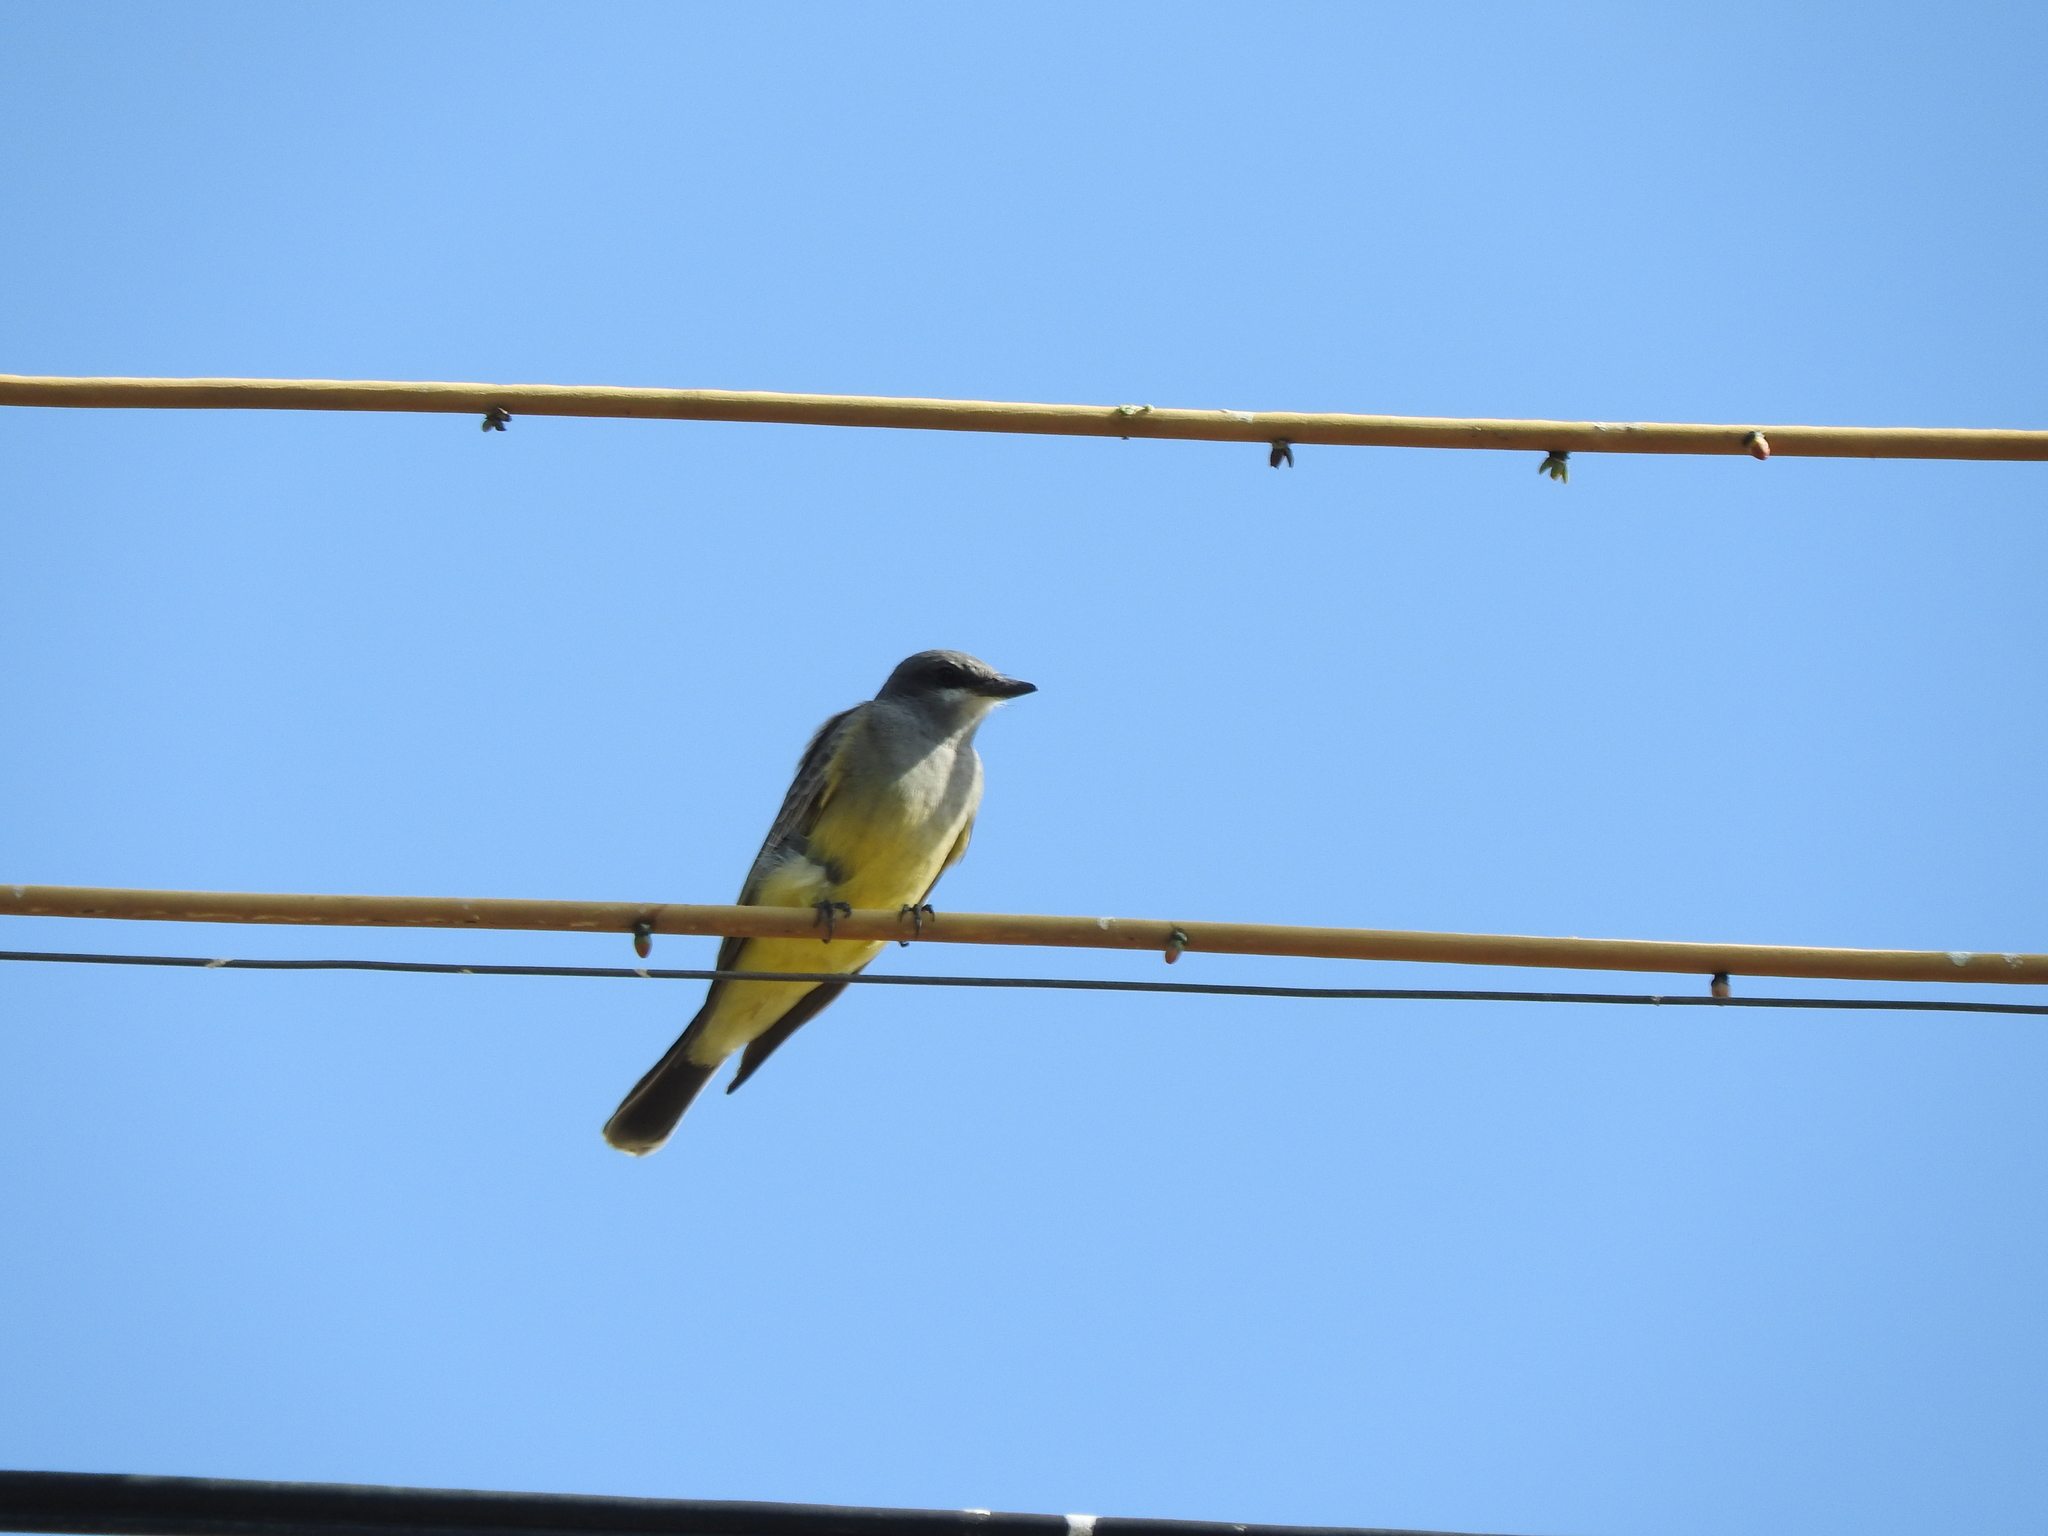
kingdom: Animalia
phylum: Chordata
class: Aves
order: Passeriformes
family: Tyrannidae
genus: Tyrannus
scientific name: Tyrannus vociferans
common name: Cassin's kingbird
